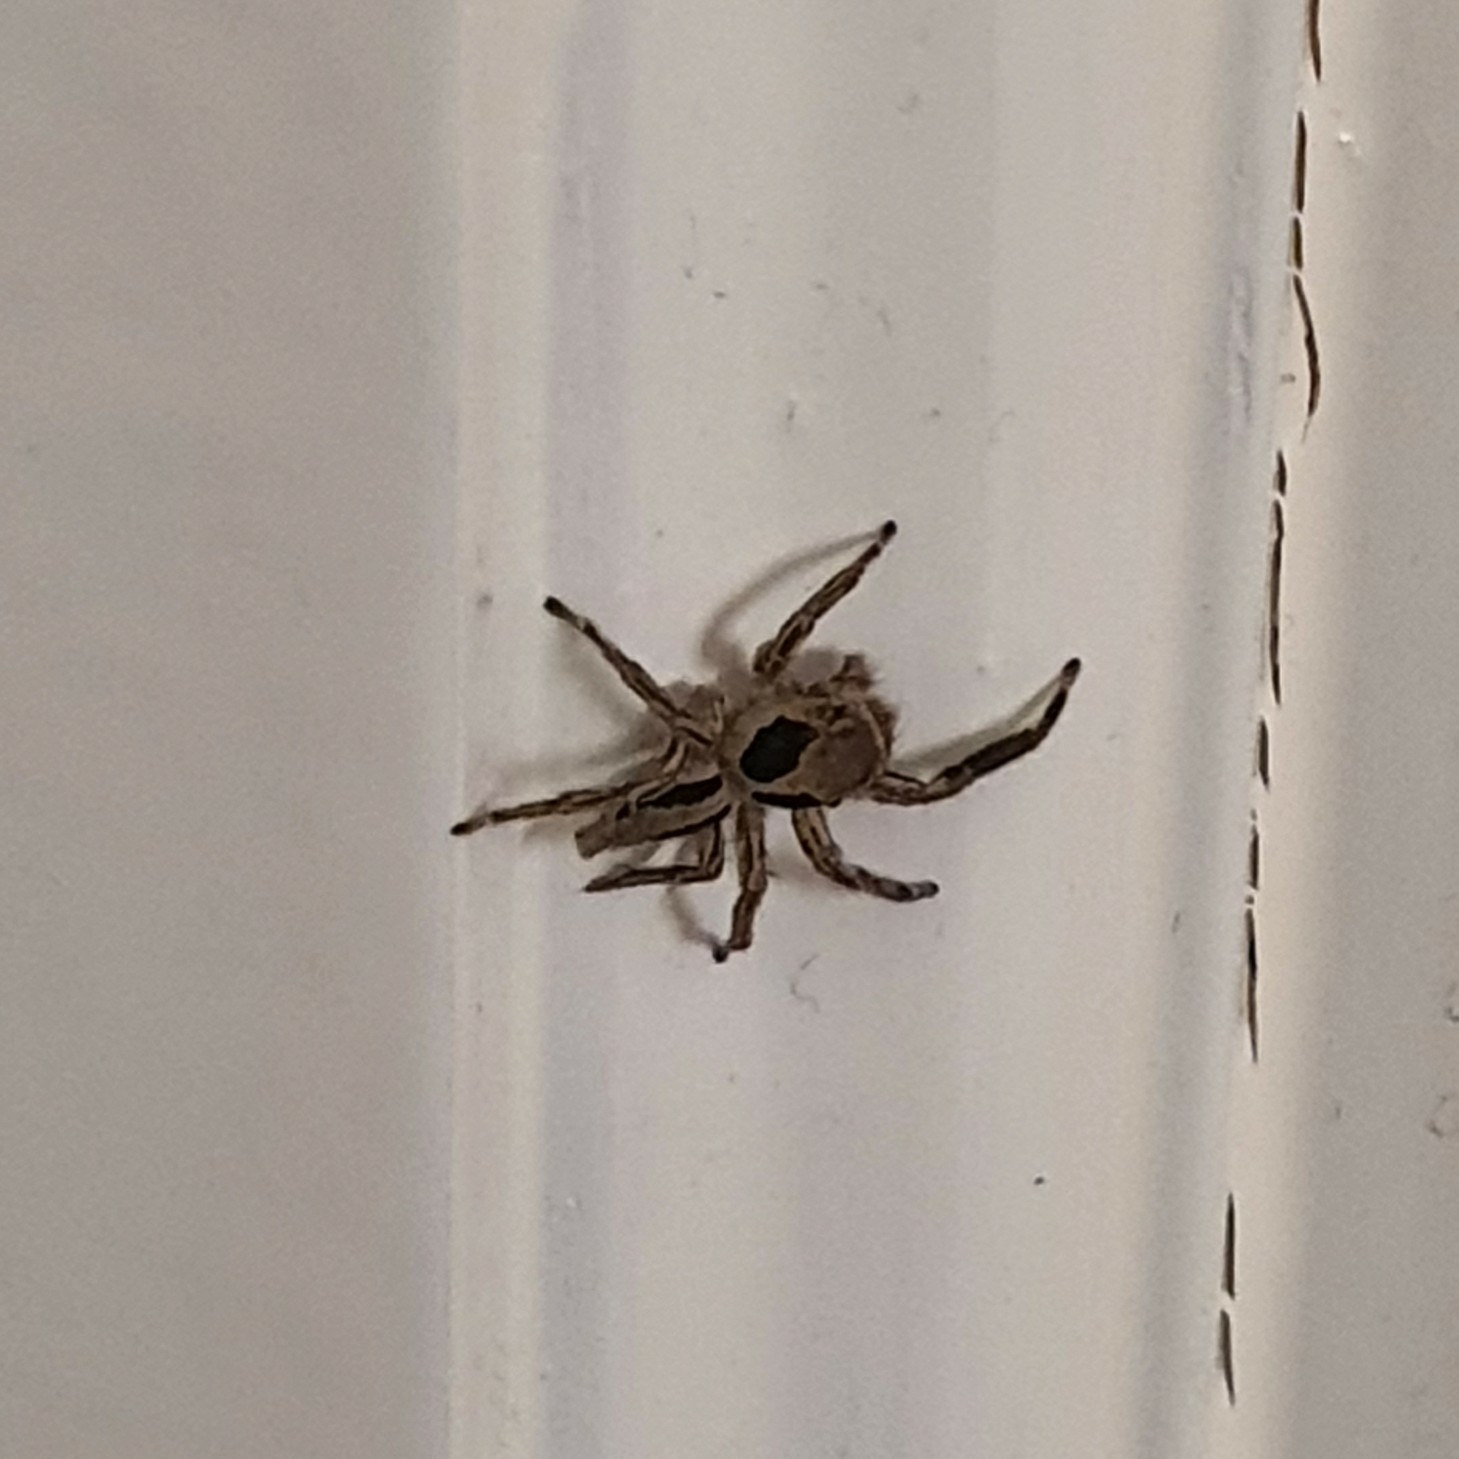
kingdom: Animalia
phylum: Arthropoda
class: Arachnida
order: Araneae
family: Salticidae
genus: Plexippus
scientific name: Plexippus petersi
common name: Jumping spider
